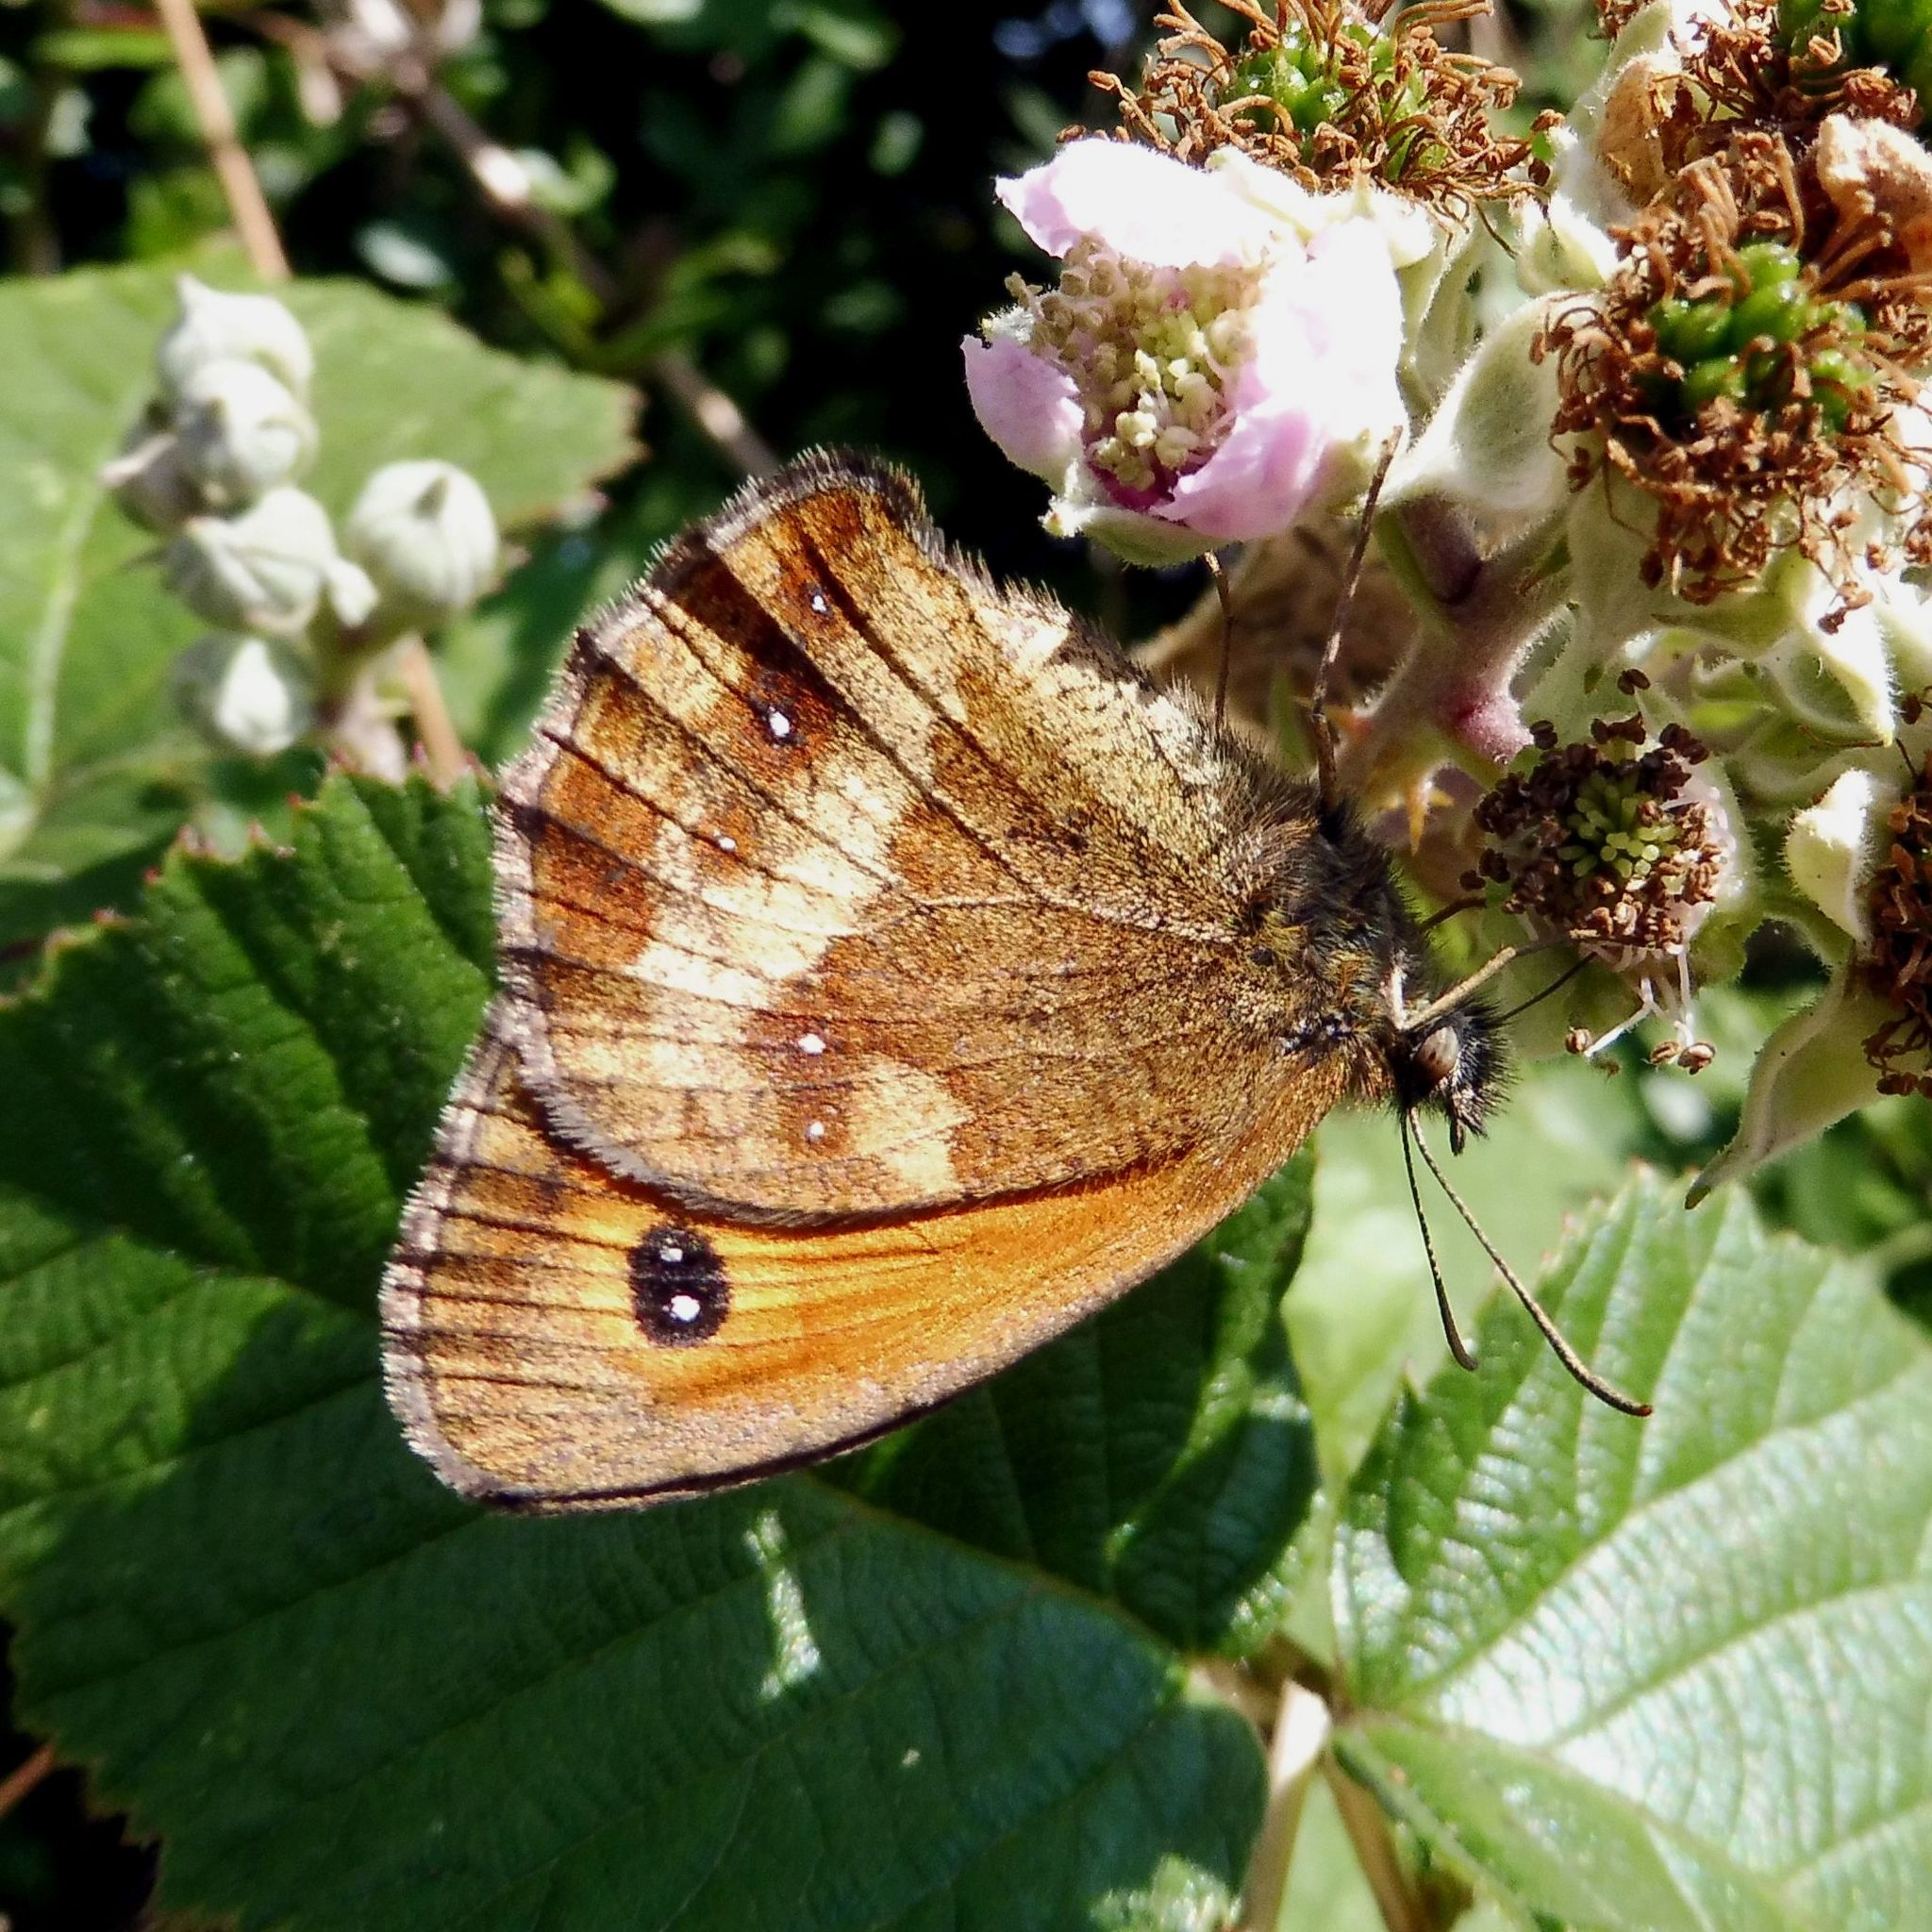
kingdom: Animalia
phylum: Arthropoda
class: Insecta
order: Lepidoptera
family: Nymphalidae
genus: Pyronia
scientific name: Pyronia tithonus
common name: Gatekeeper
